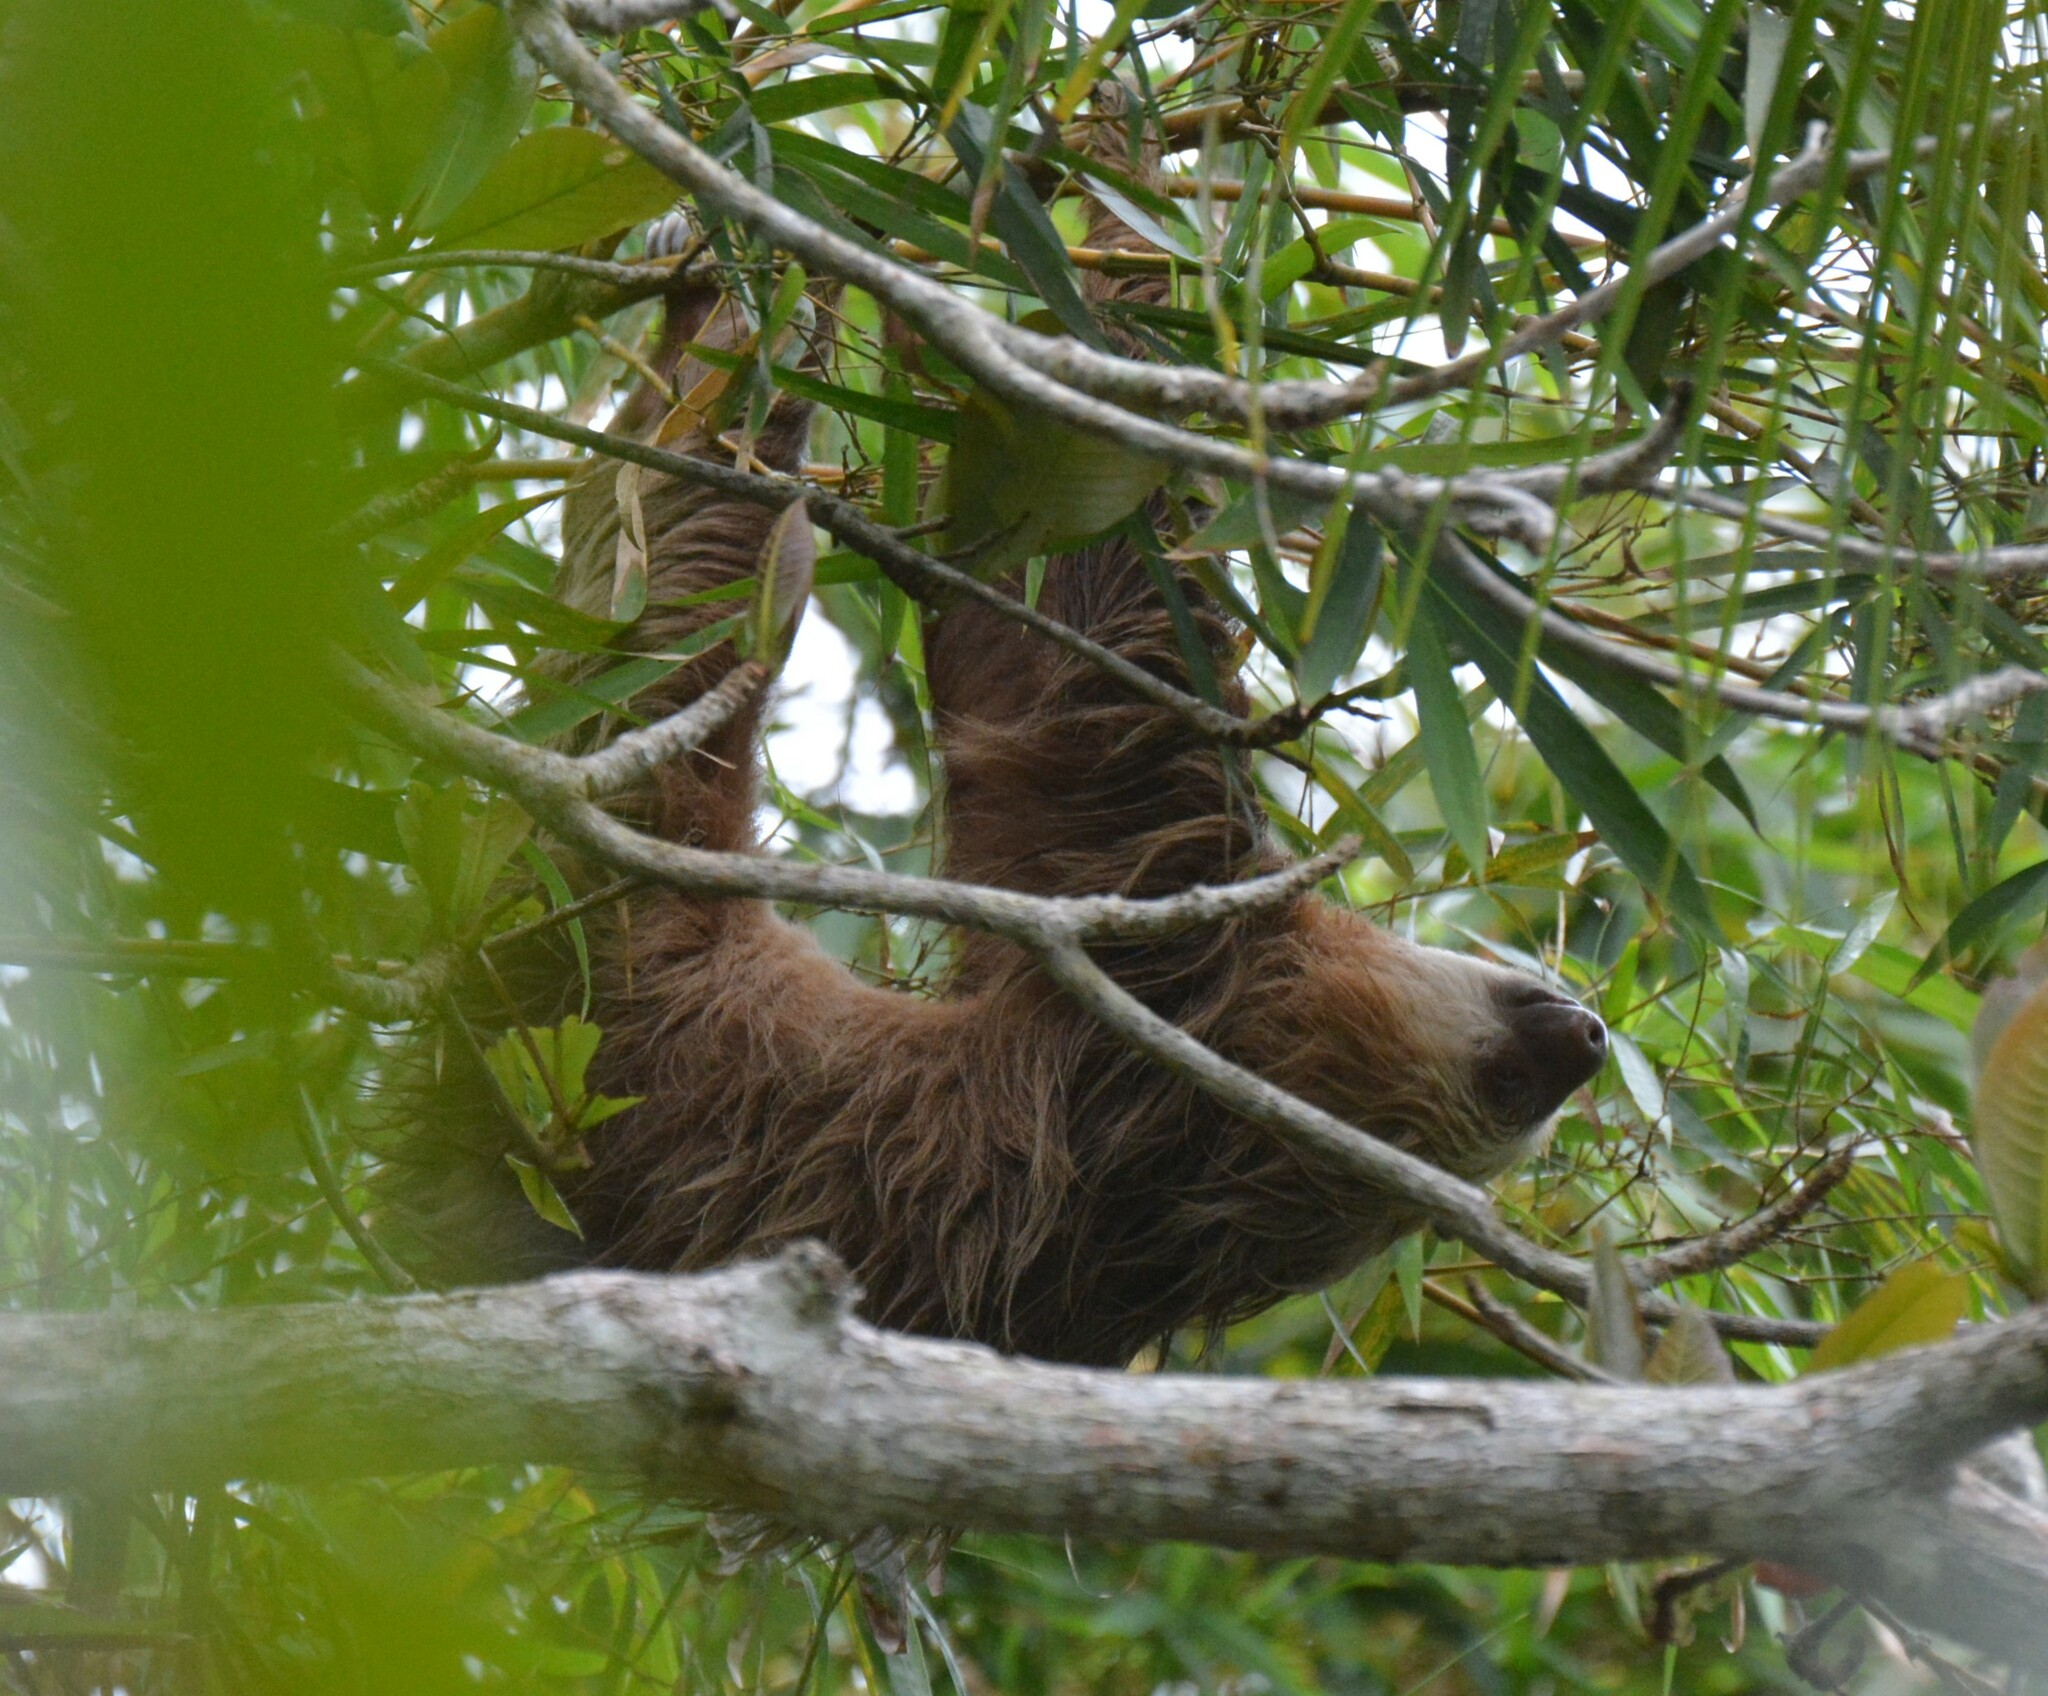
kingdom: Animalia
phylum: Chordata
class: Mammalia
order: Pilosa
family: Megalonychidae
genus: Choloepus
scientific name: Choloepus hoffmanni
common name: Hoffmann's two-toed sloth
